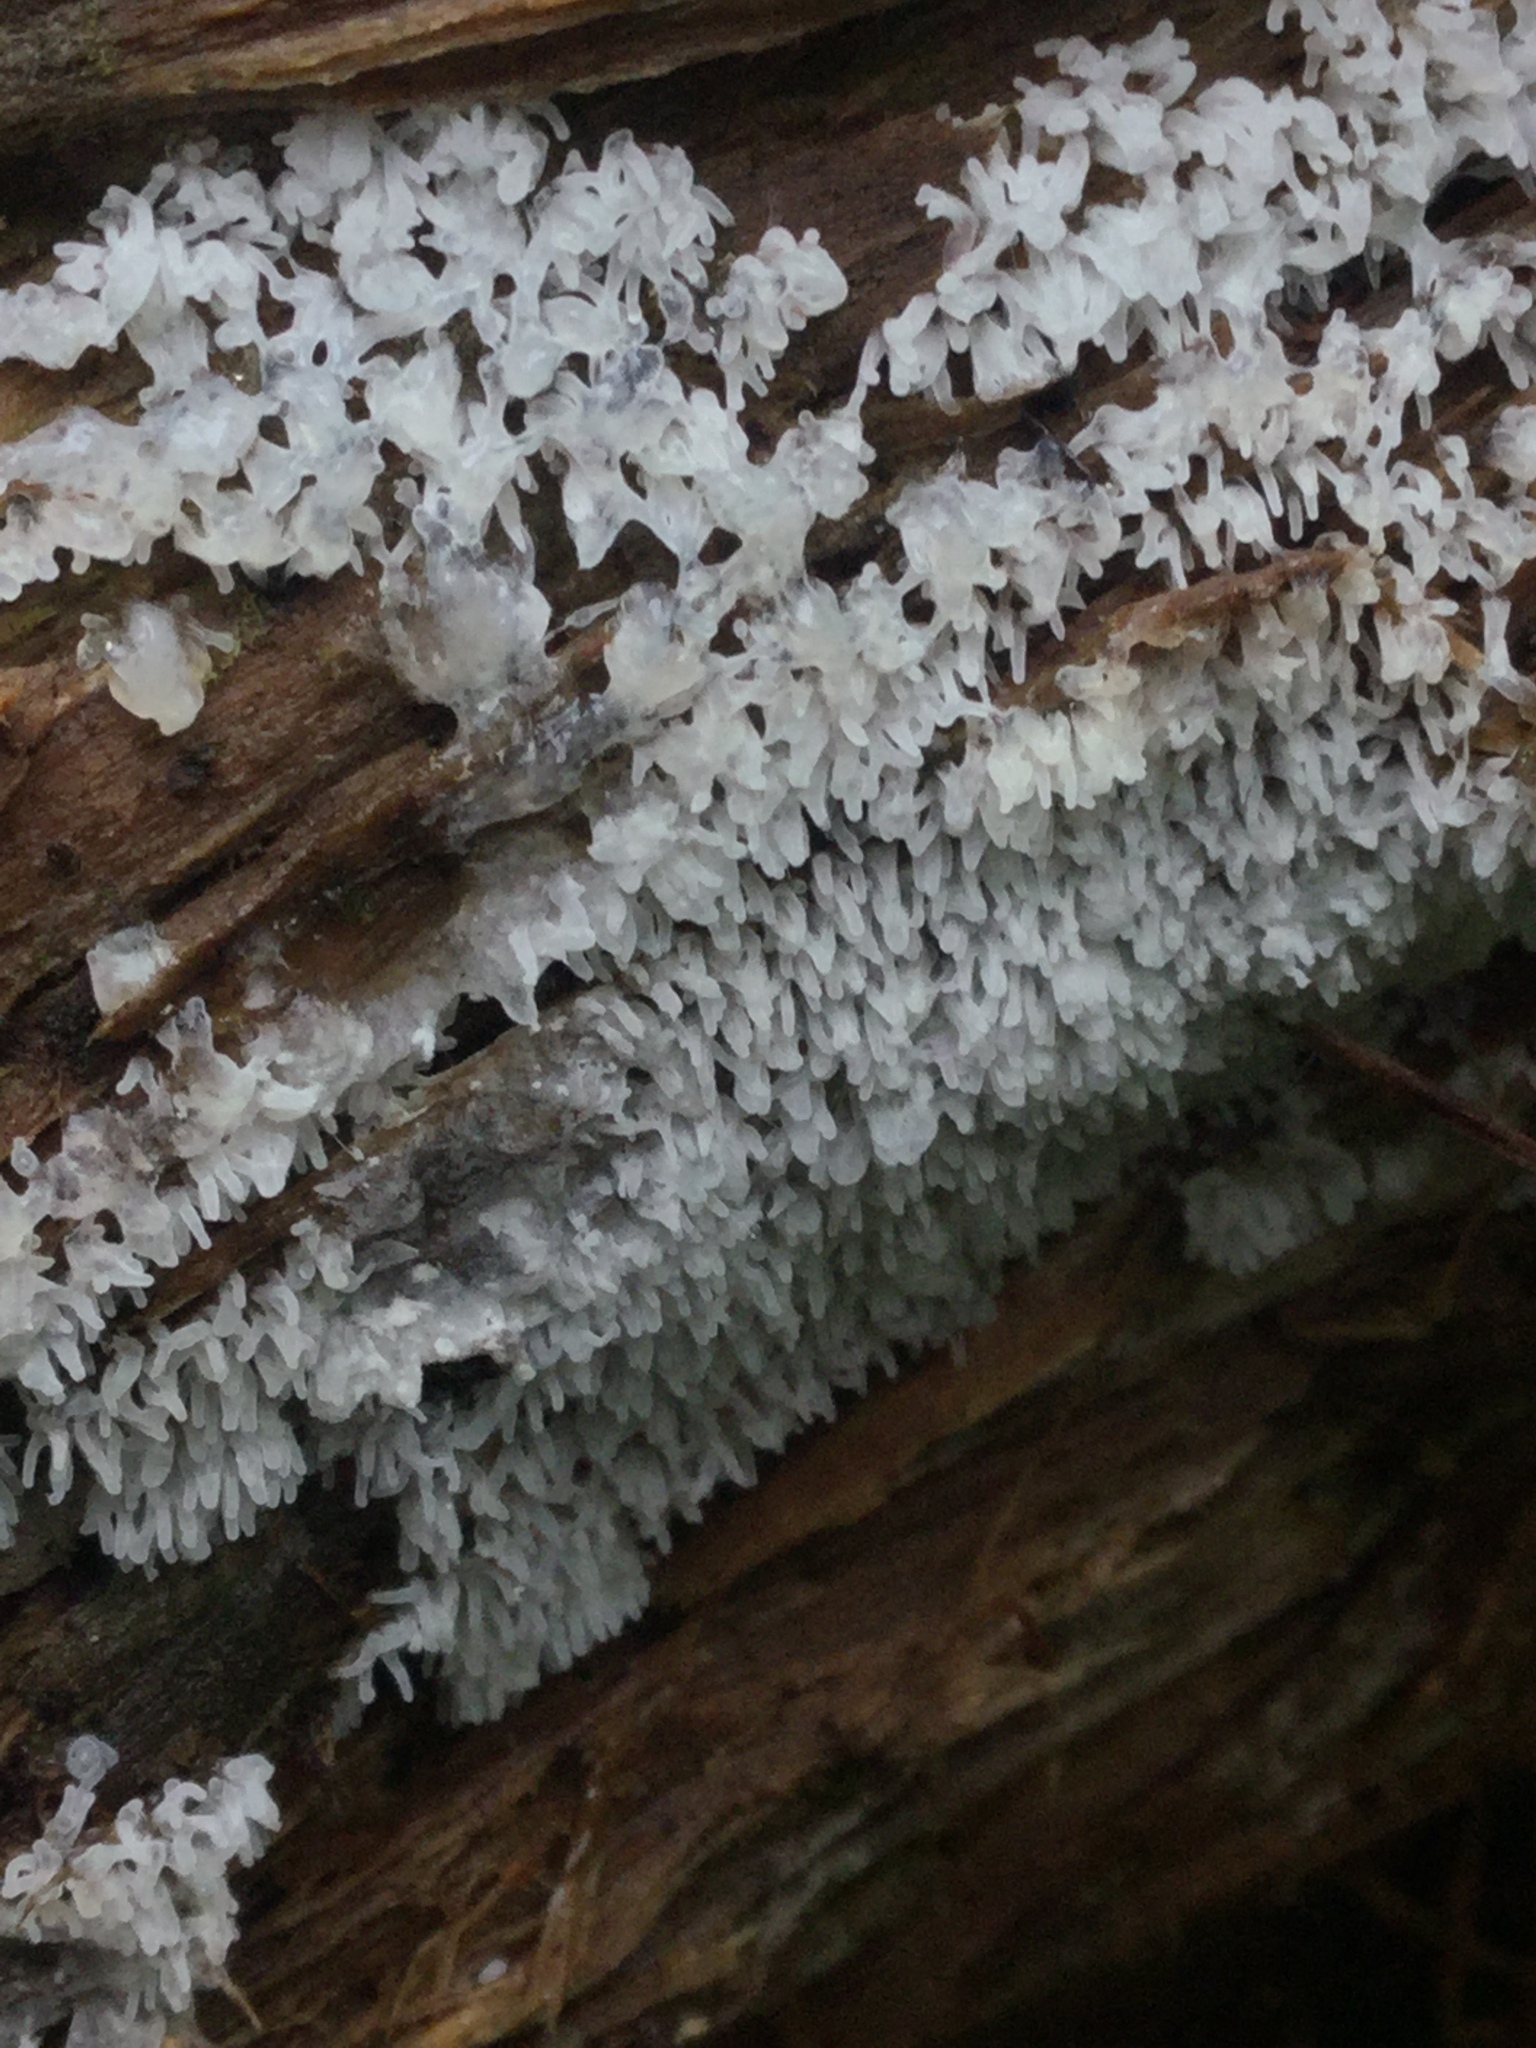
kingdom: Protozoa
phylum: Mycetozoa
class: Protosteliomycetes
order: Ceratiomyxales
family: Ceratiomyxaceae
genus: Ceratiomyxa
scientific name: Ceratiomyxa fruticulosa
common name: Honeycomb coral slime mold
